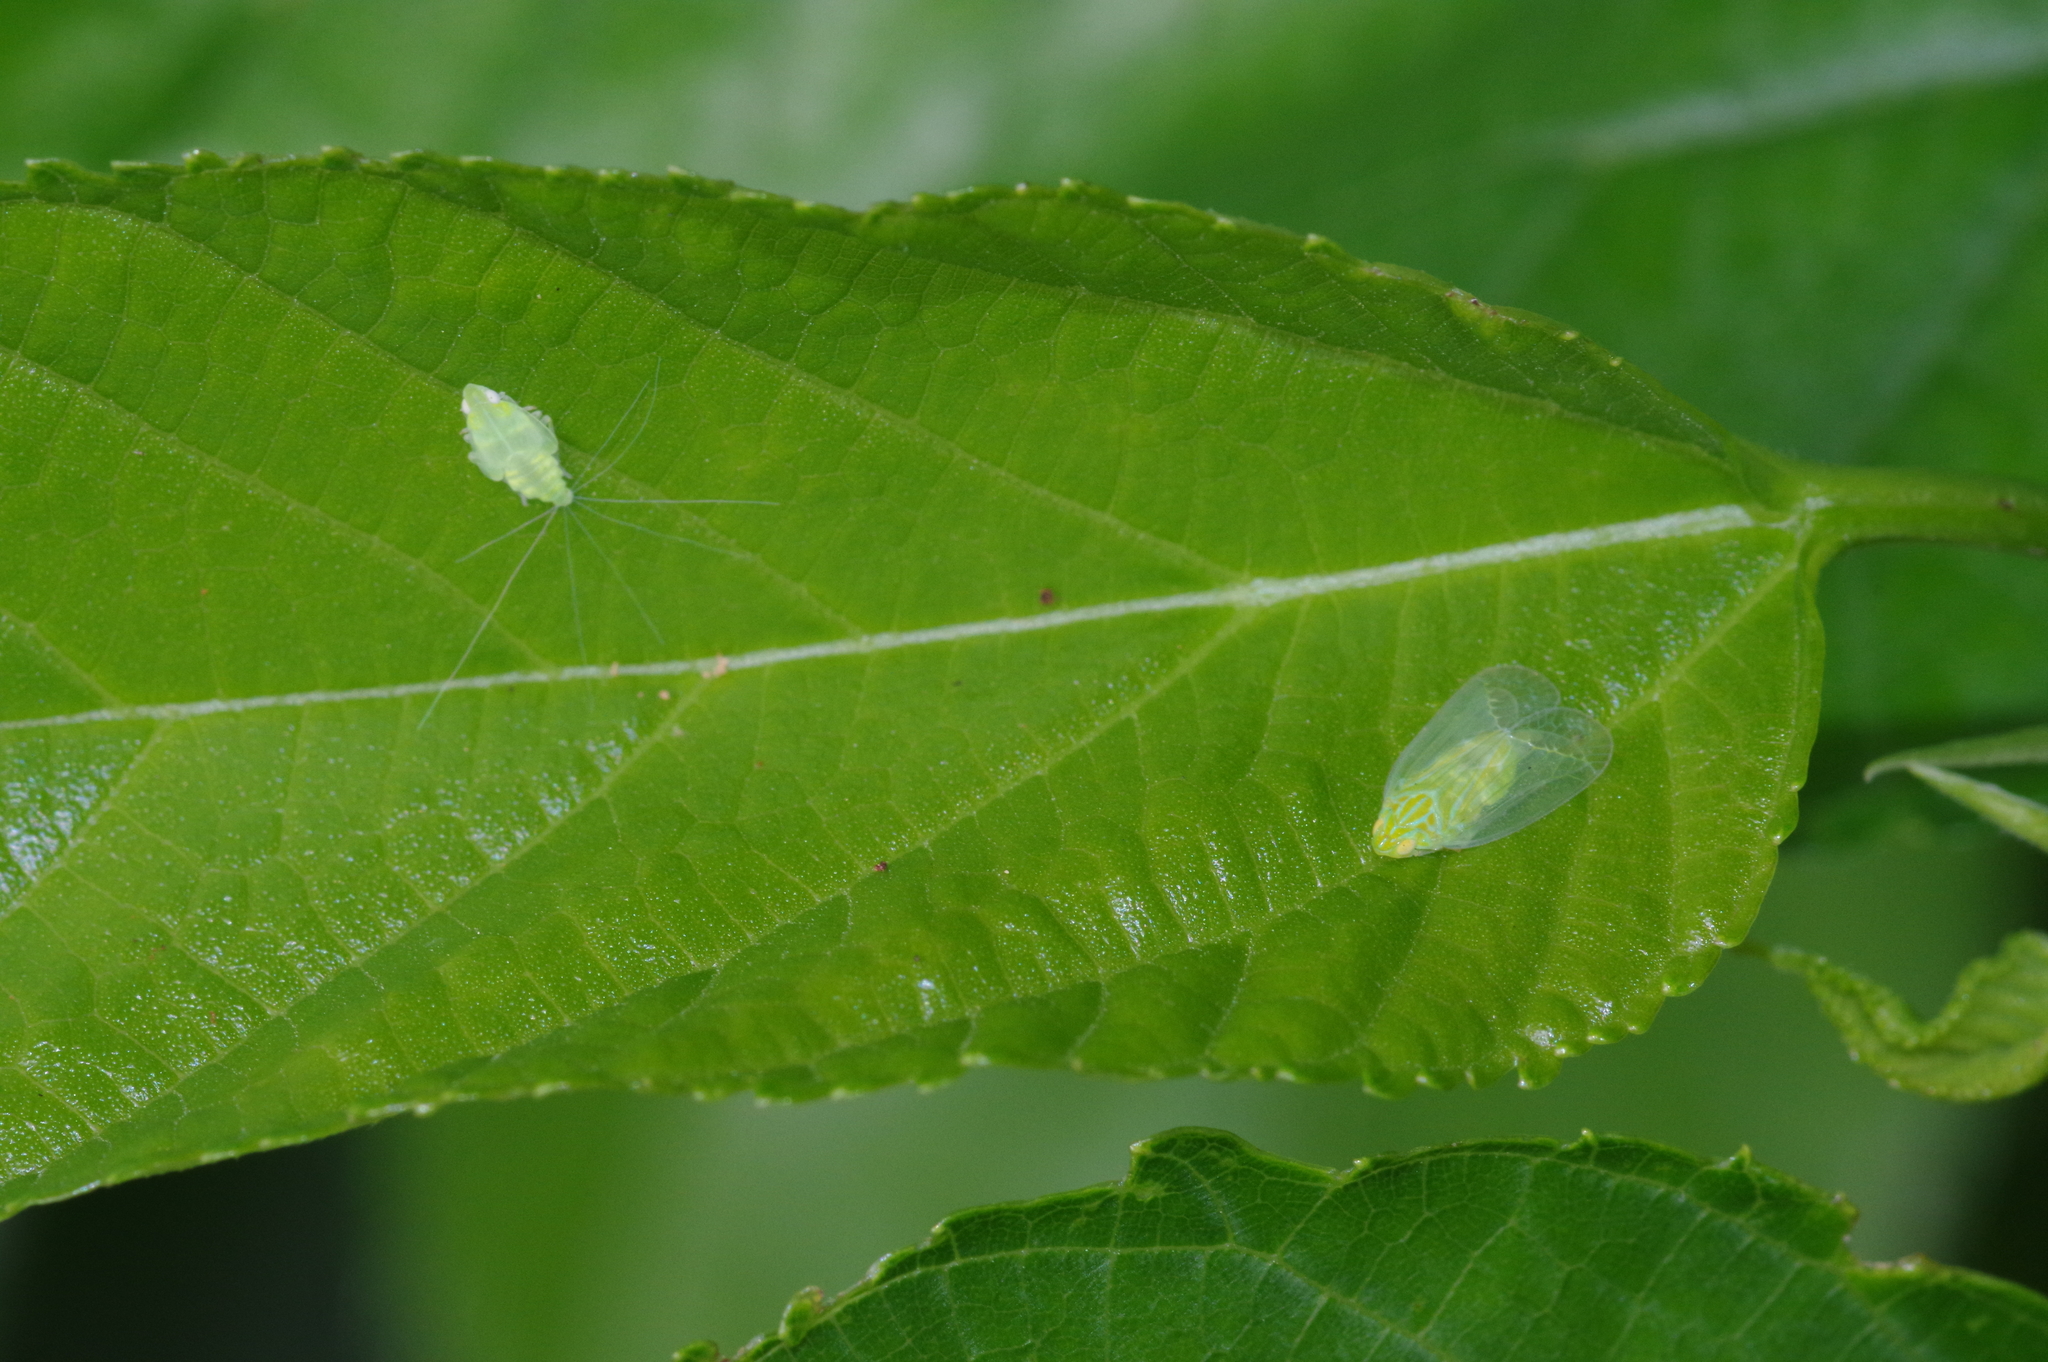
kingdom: Animalia
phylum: Arthropoda
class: Insecta
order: Hemiptera
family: Tropiduchidae
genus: Kallitaxila
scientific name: Kallitaxila sinica
